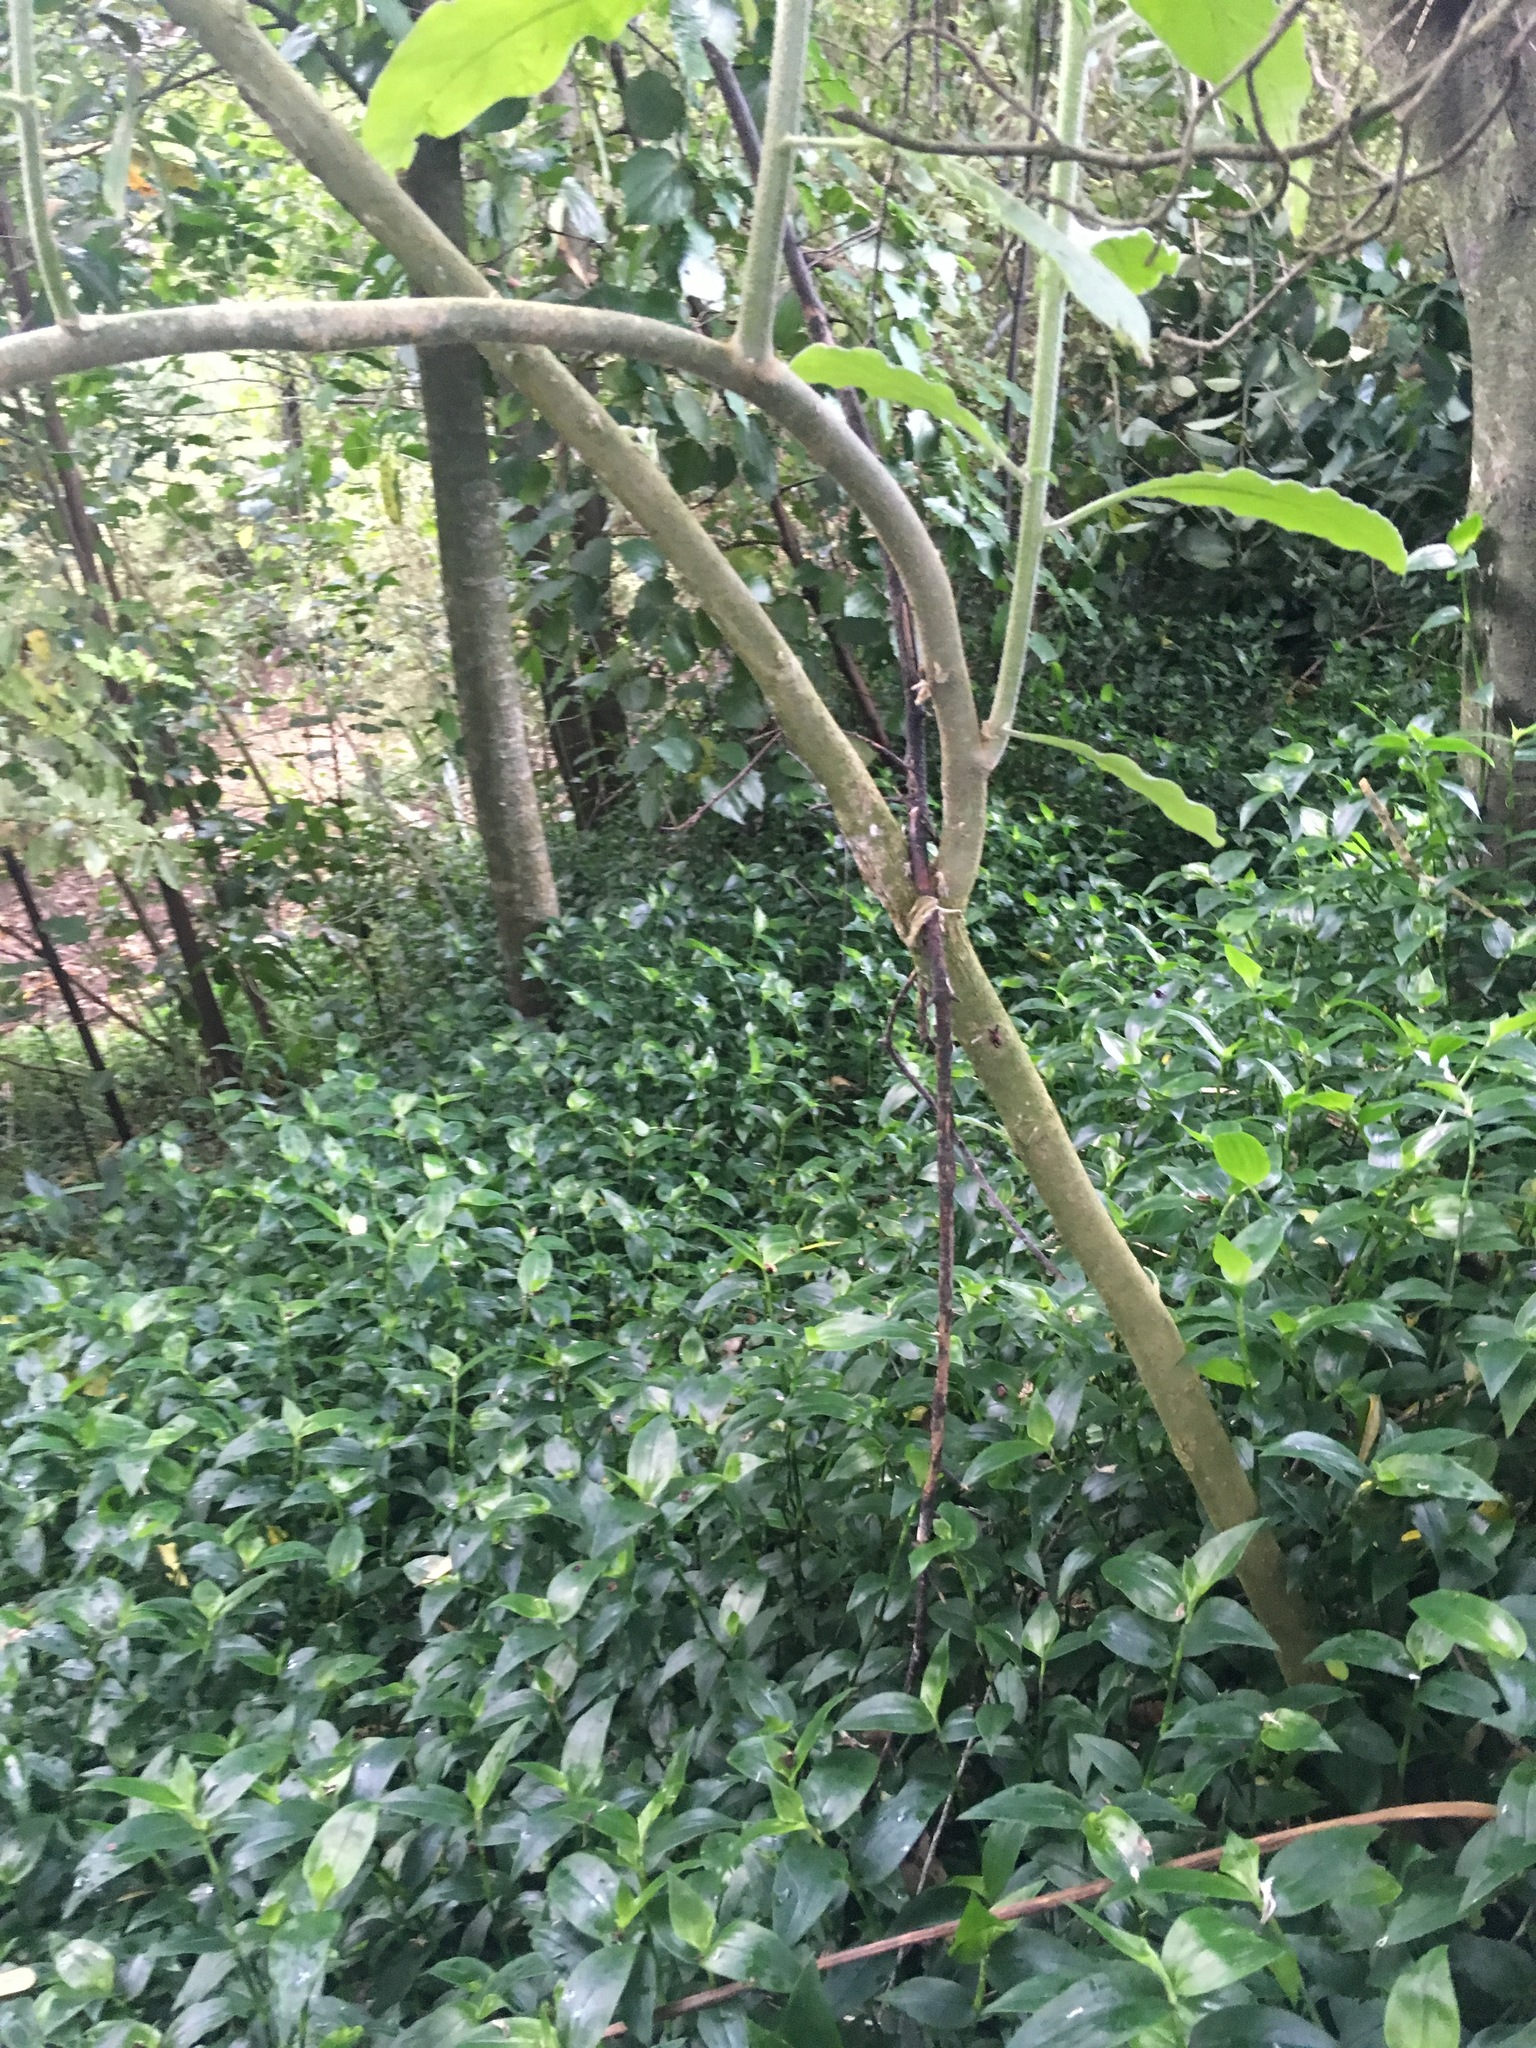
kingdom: Plantae
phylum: Tracheophyta
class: Liliopsida
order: Commelinales
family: Commelinaceae
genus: Tradescantia
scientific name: Tradescantia fluminensis
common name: Wandering-jew
